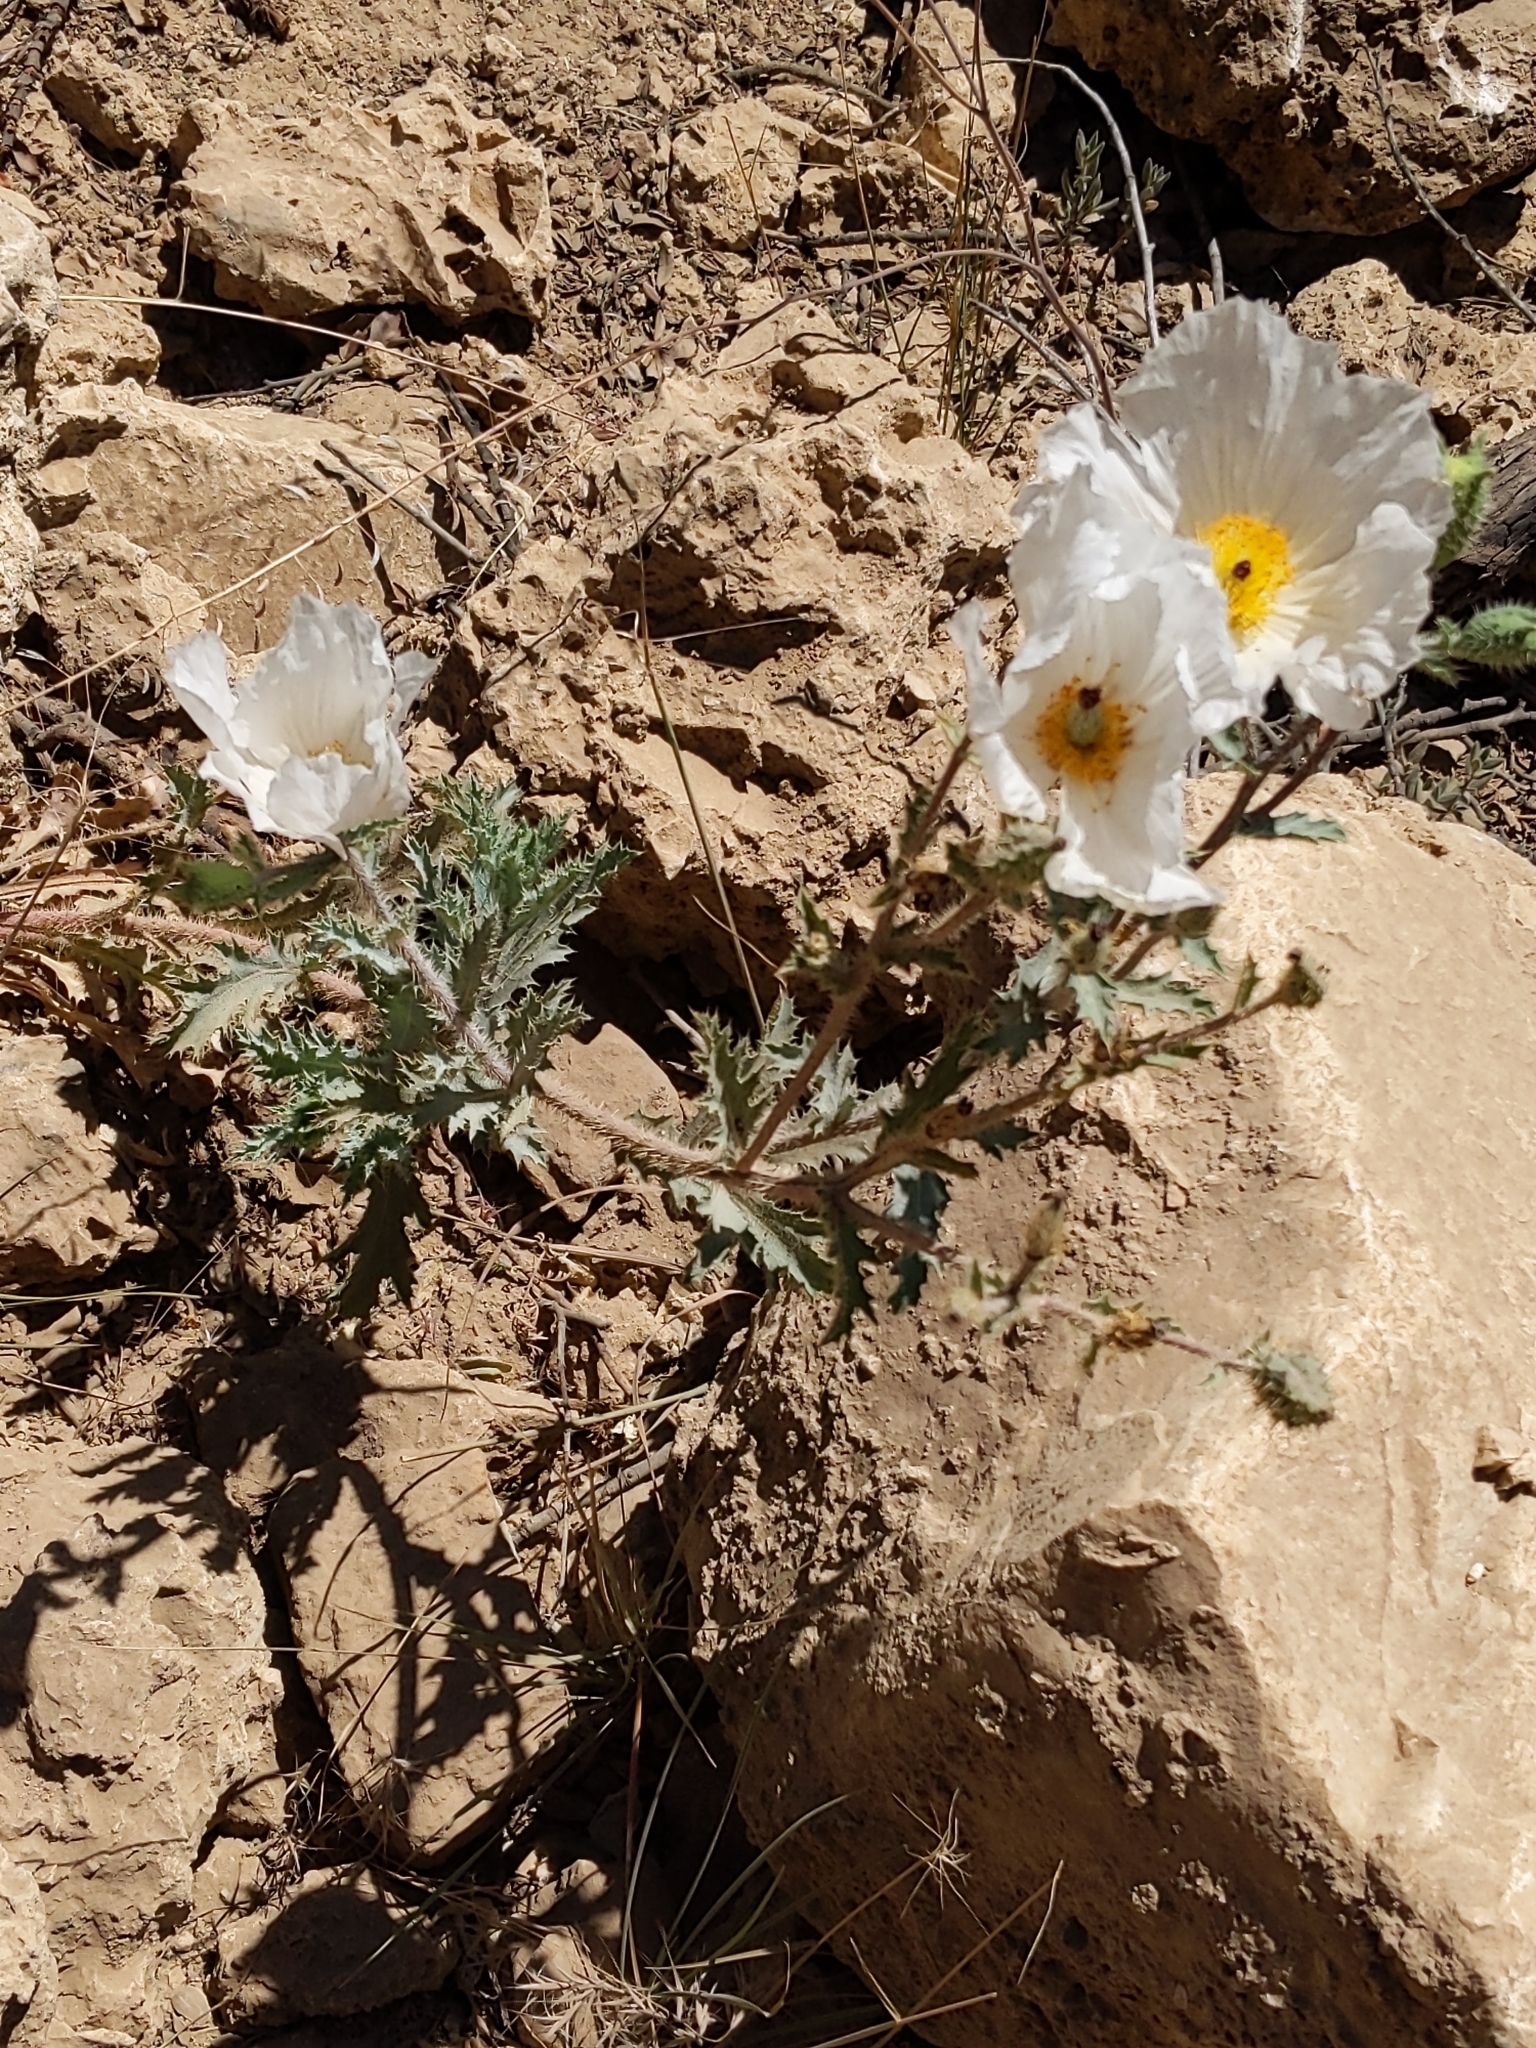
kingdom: Plantae
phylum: Tracheophyta
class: Magnoliopsida
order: Ranunculales
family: Papaveraceae
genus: Argemone
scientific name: Argemone munita
